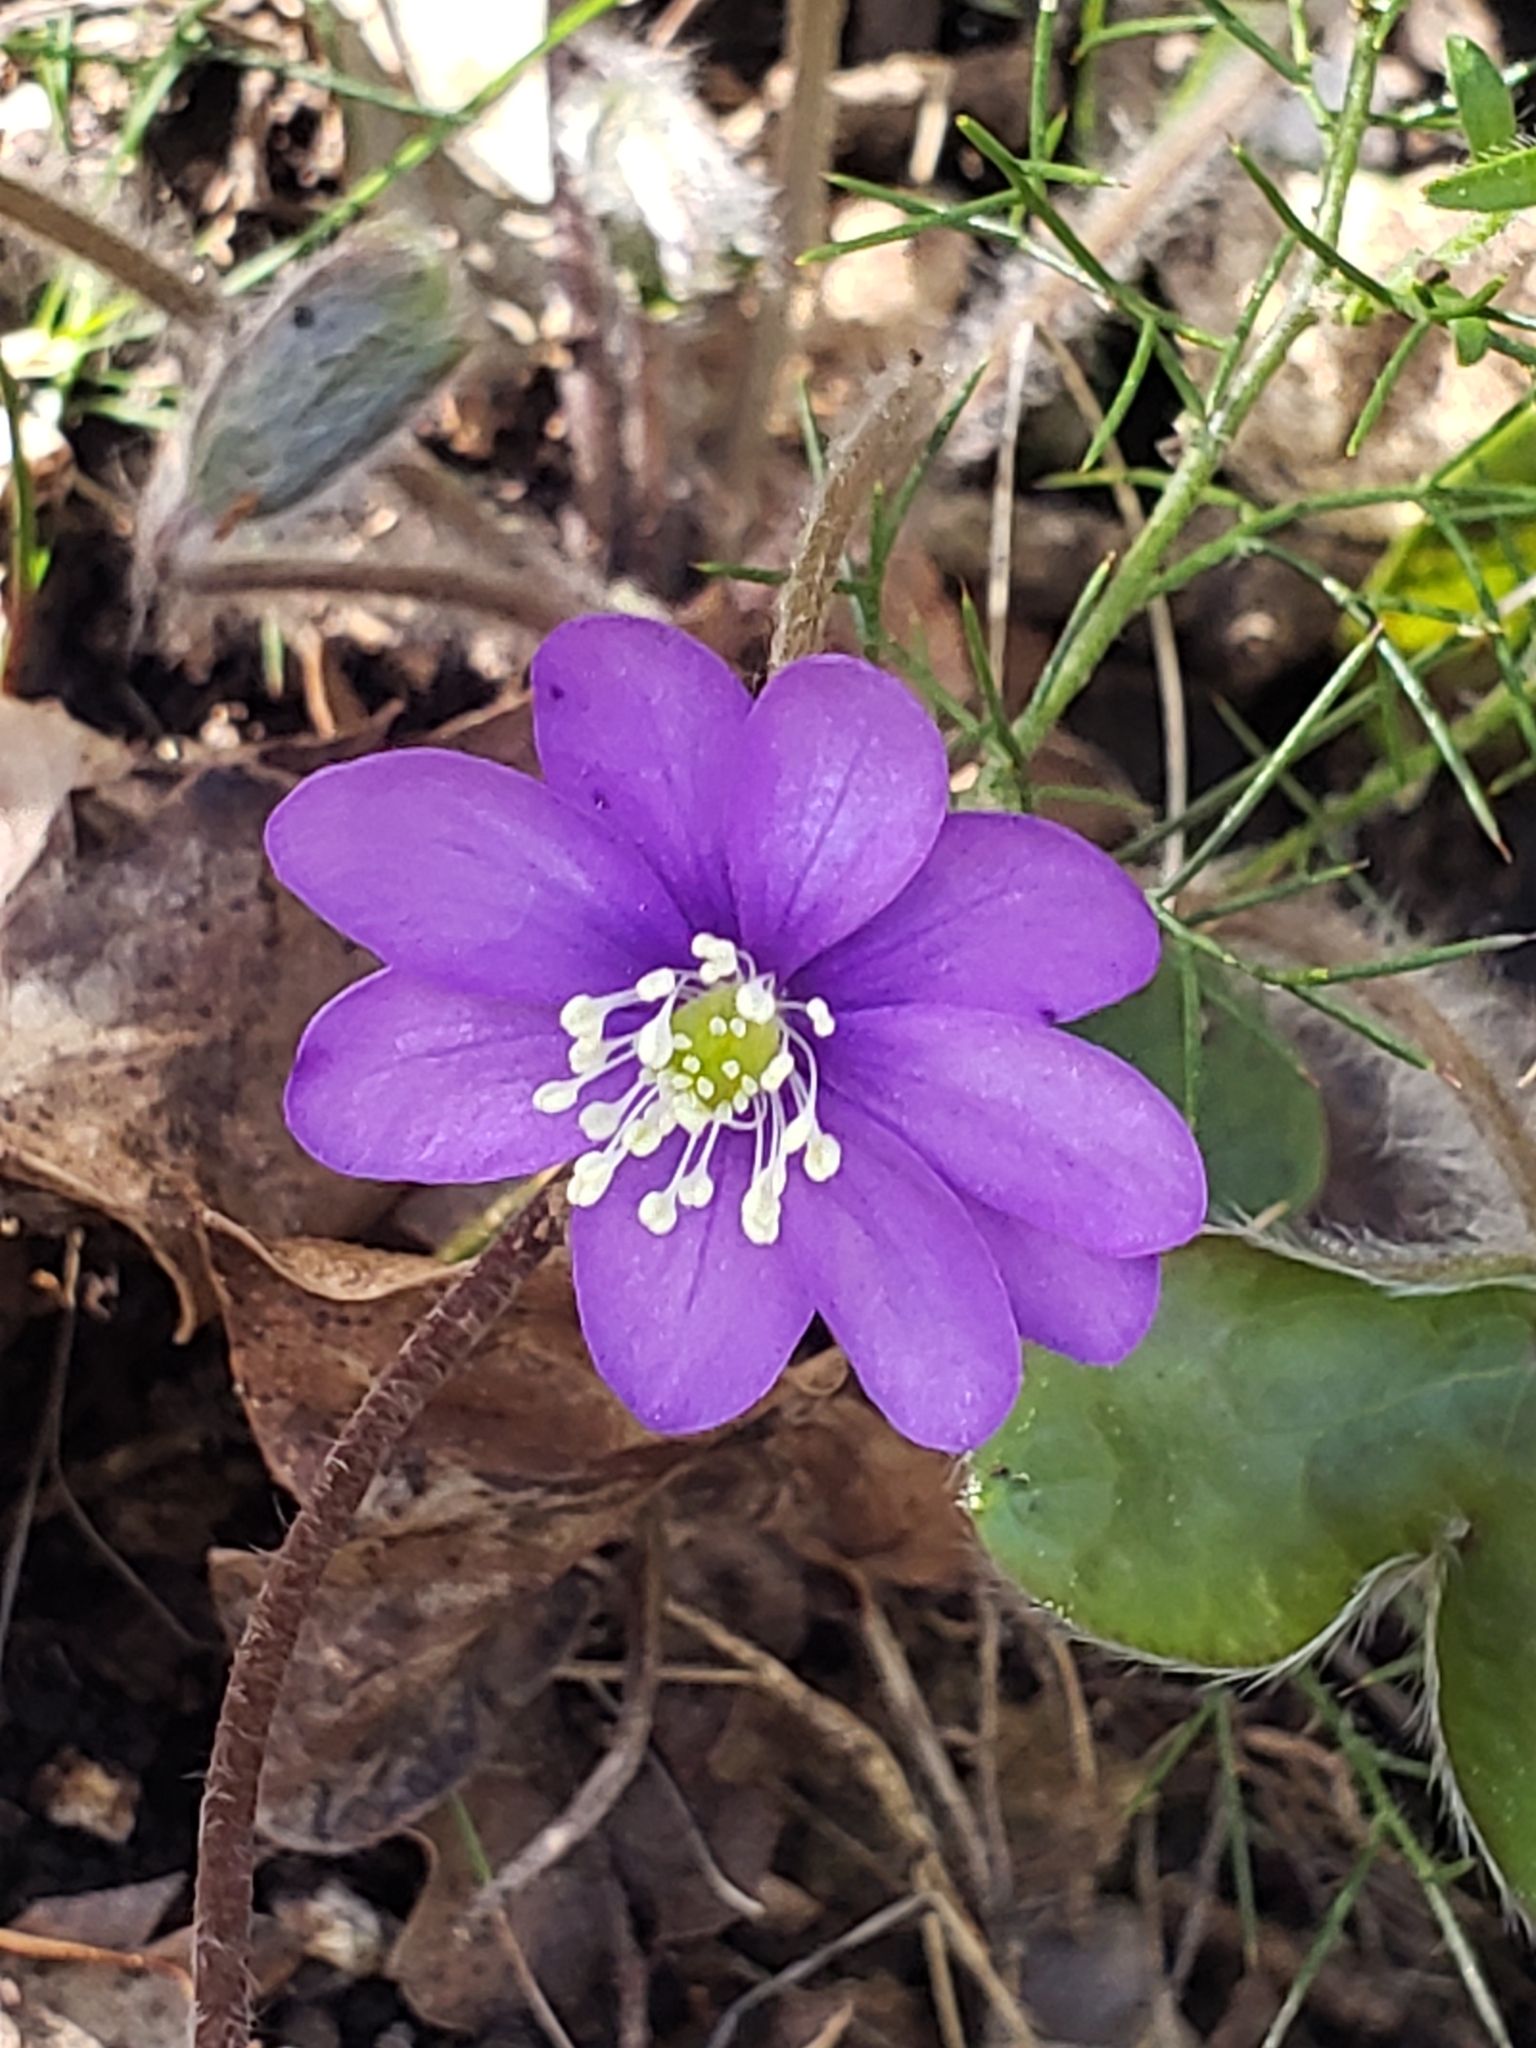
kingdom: Plantae
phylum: Tracheophyta
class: Magnoliopsida
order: Ranunculales
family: Ranunculaceae
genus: Hepatica
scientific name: Hepatica nobilis
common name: Liverleaf
